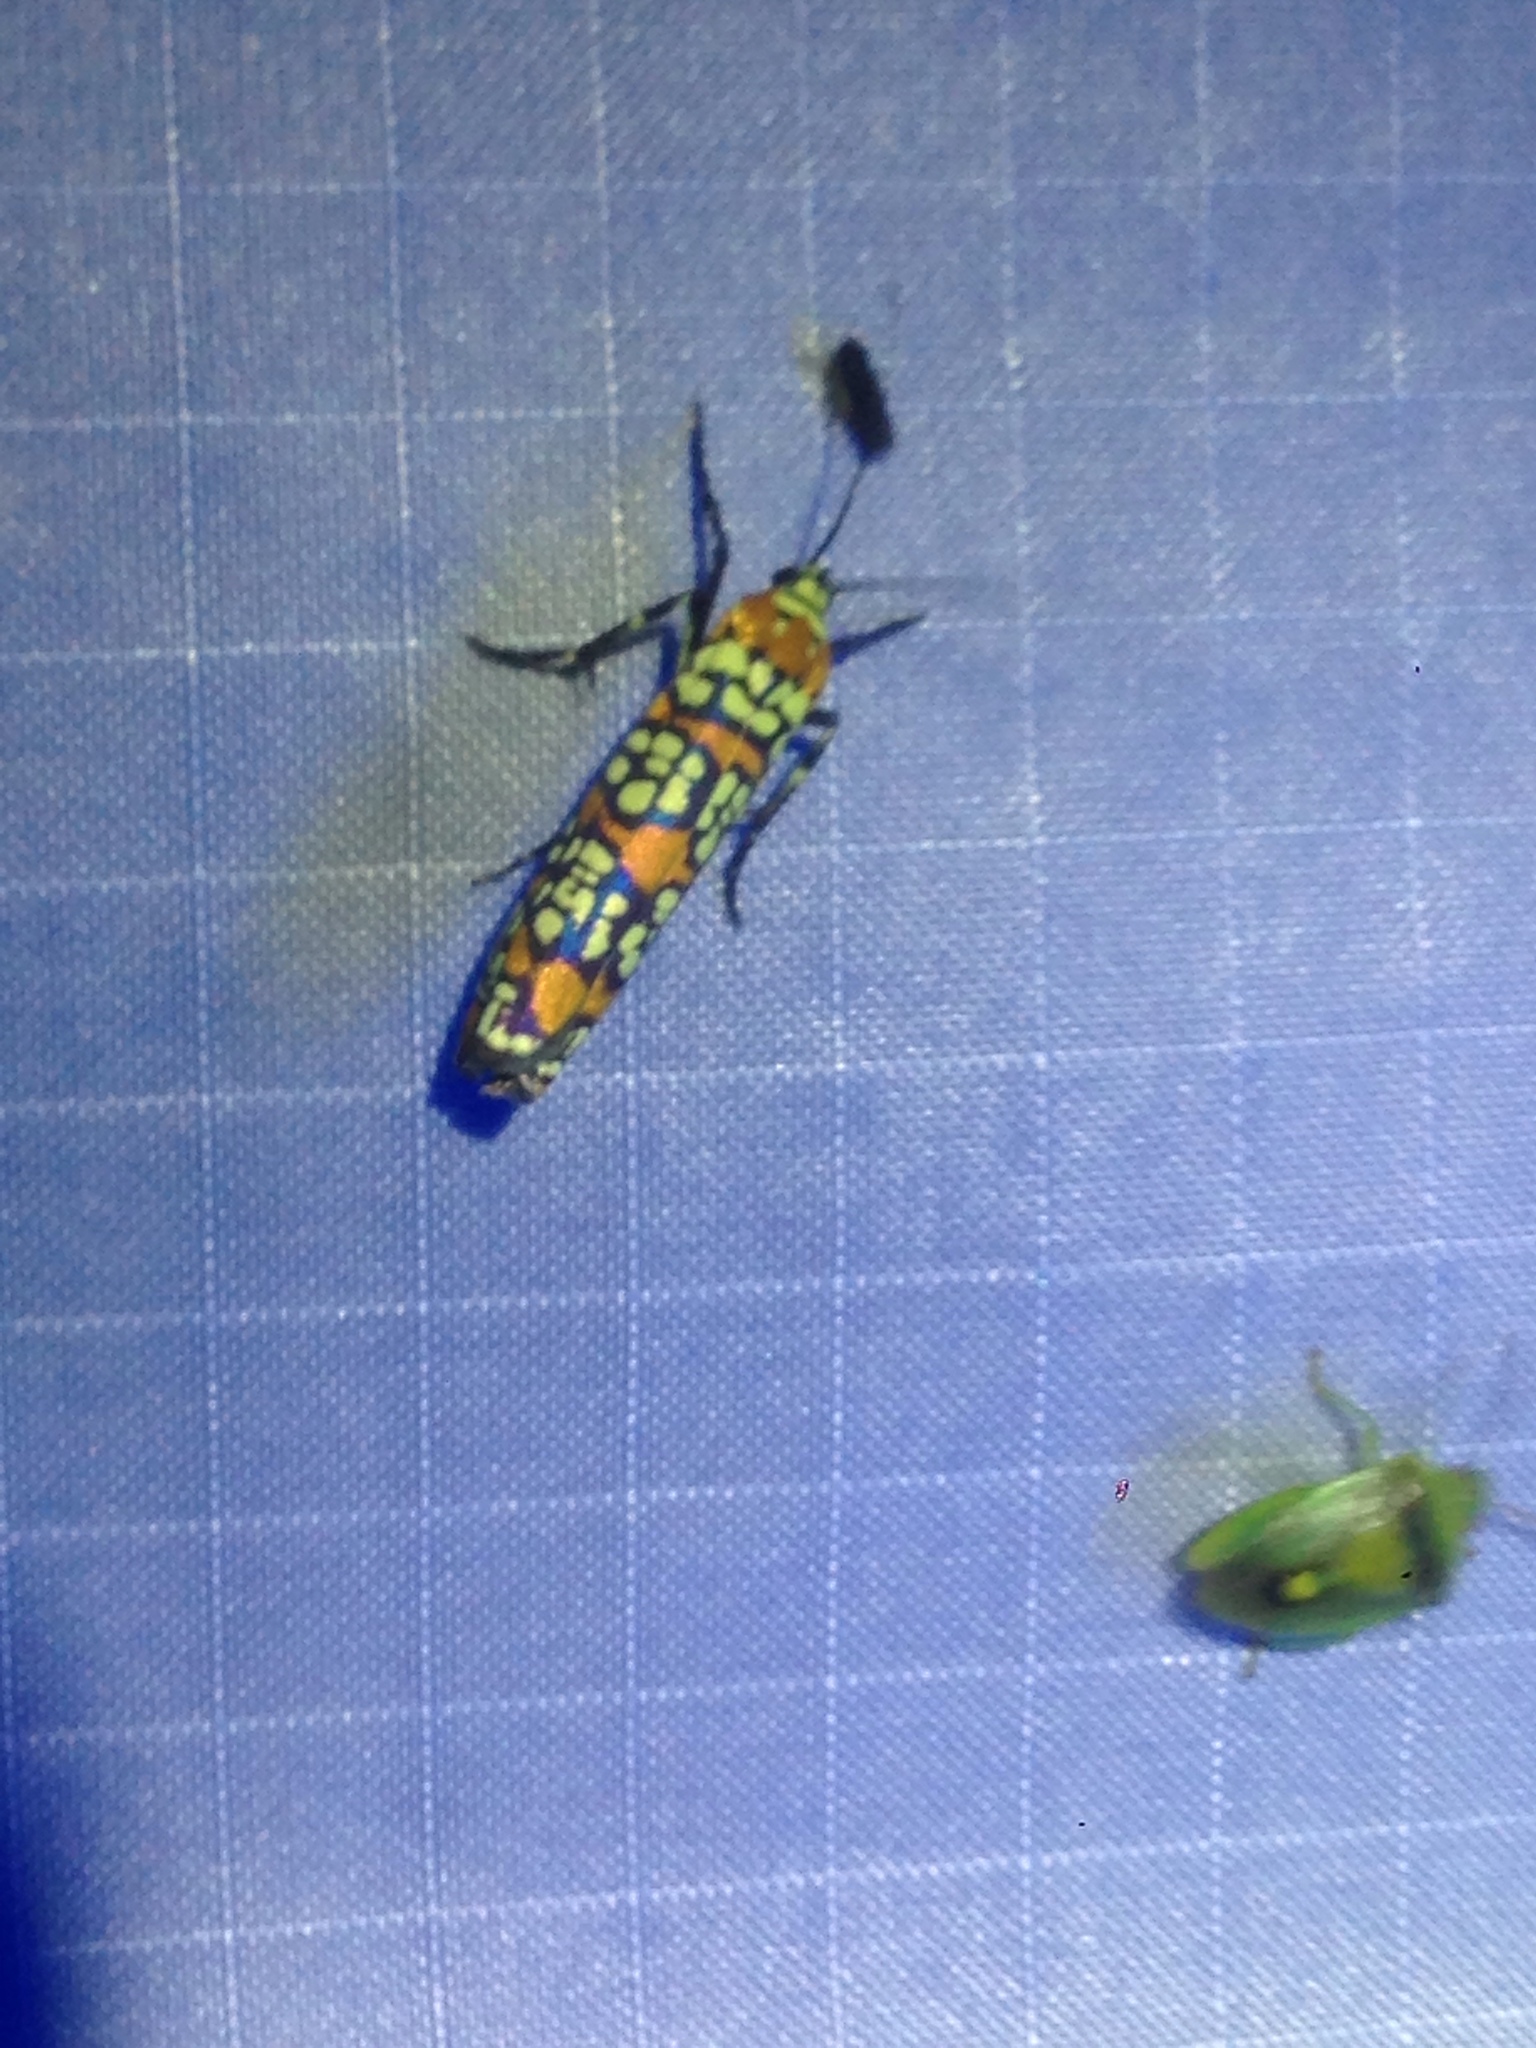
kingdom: Animalia
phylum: Arthropoda
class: Insecta
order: Lepidoptera
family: Attevidae
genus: Atteva
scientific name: Atteva punctella
